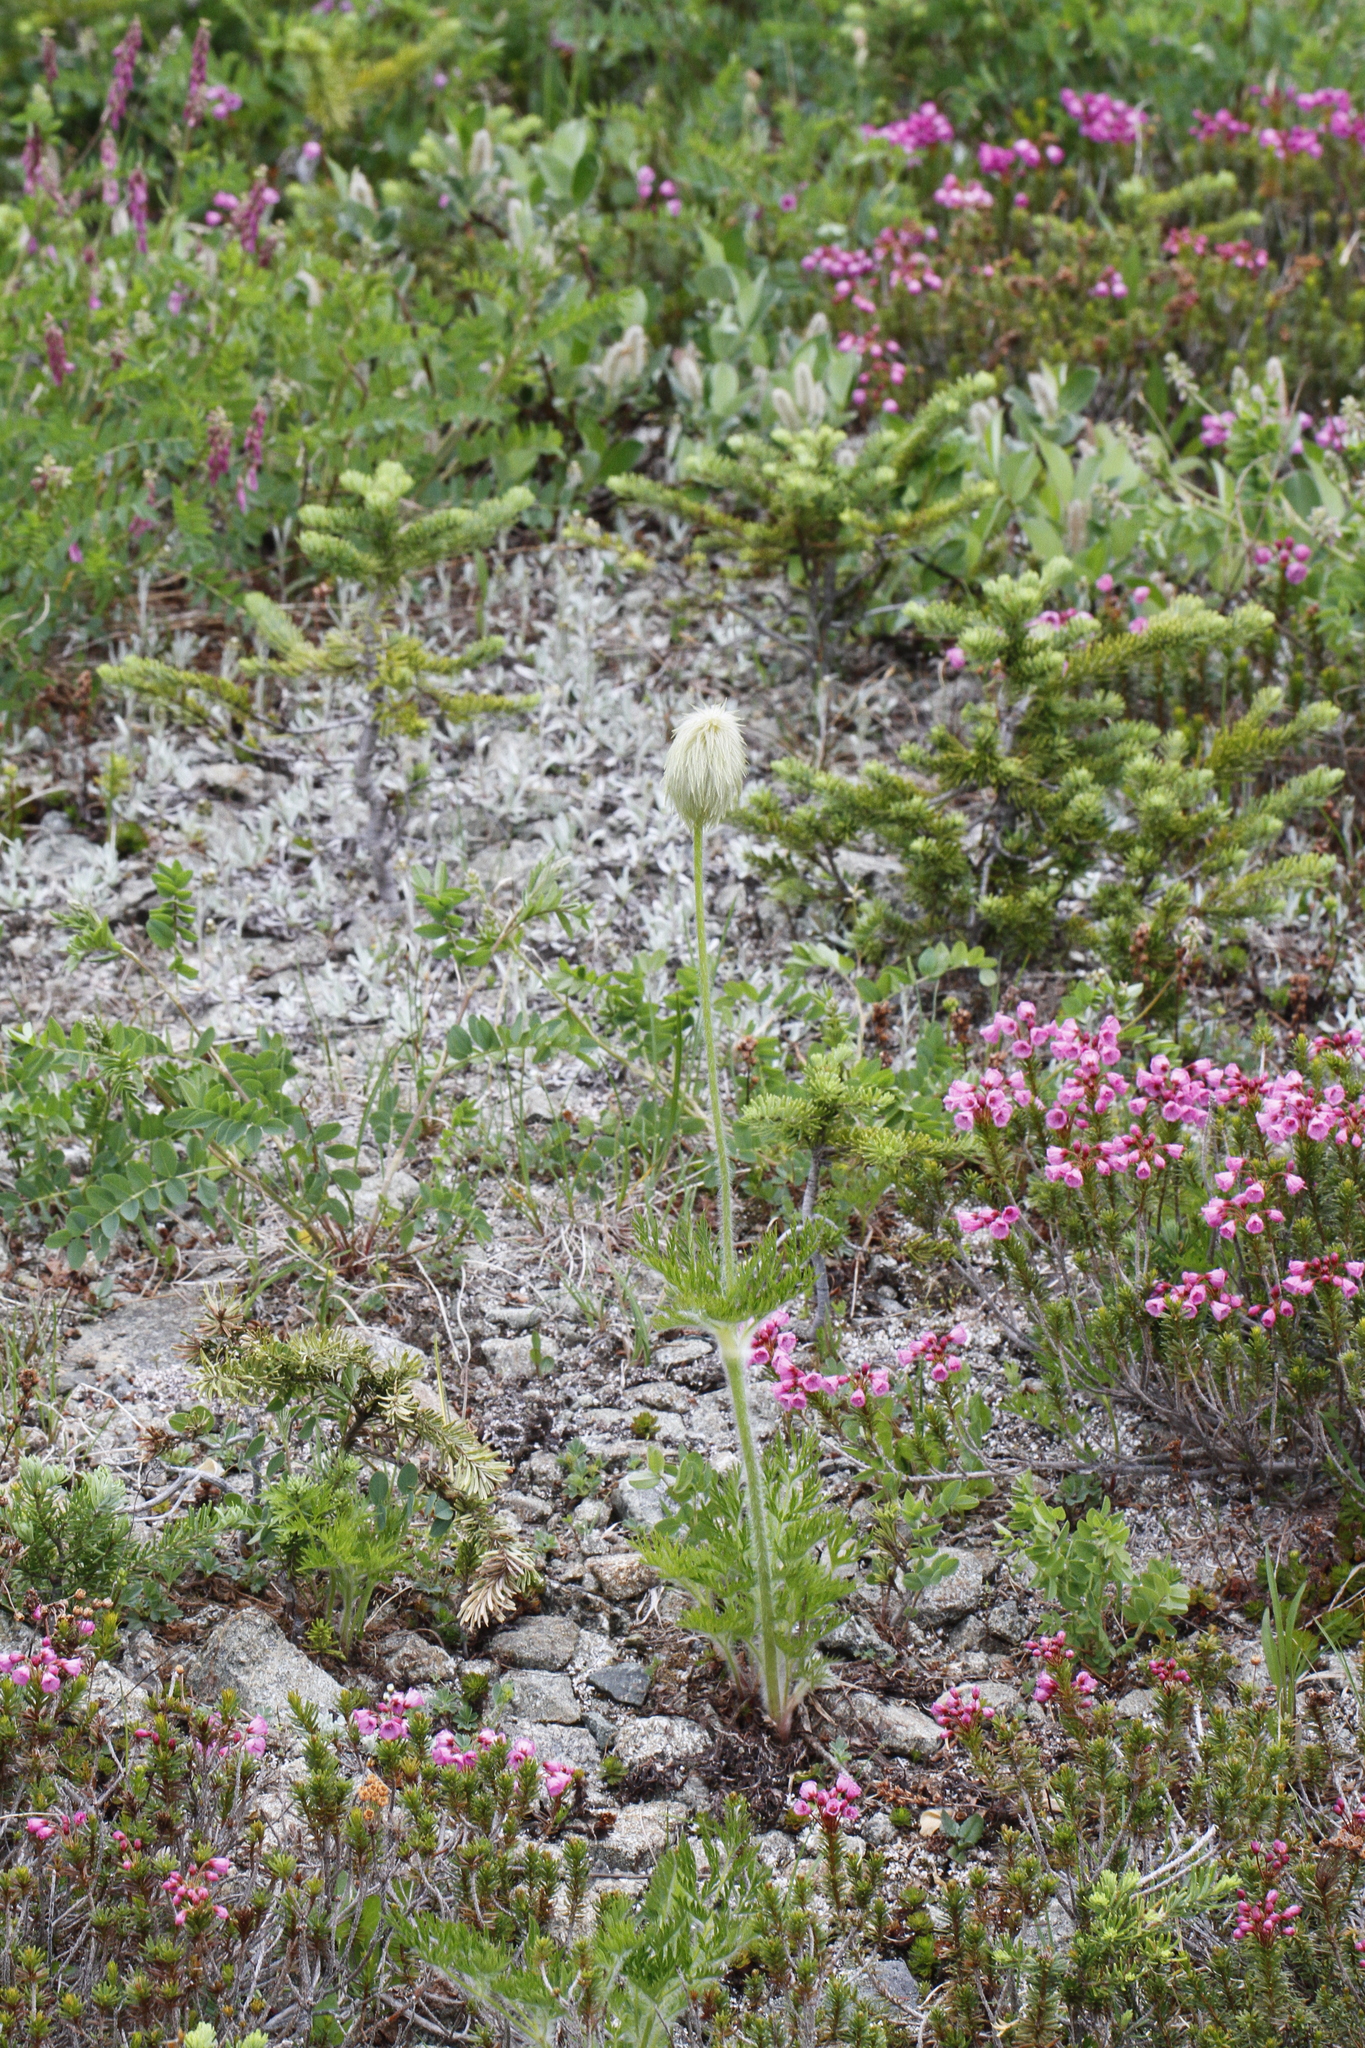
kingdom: Plantae
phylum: Tracheophyta
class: Magnoliopsida
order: Ranunculales
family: Ranunculaceae
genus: Pulsatilla
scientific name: Pulsatilla occidentalis
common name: Mountain pasqueflower
